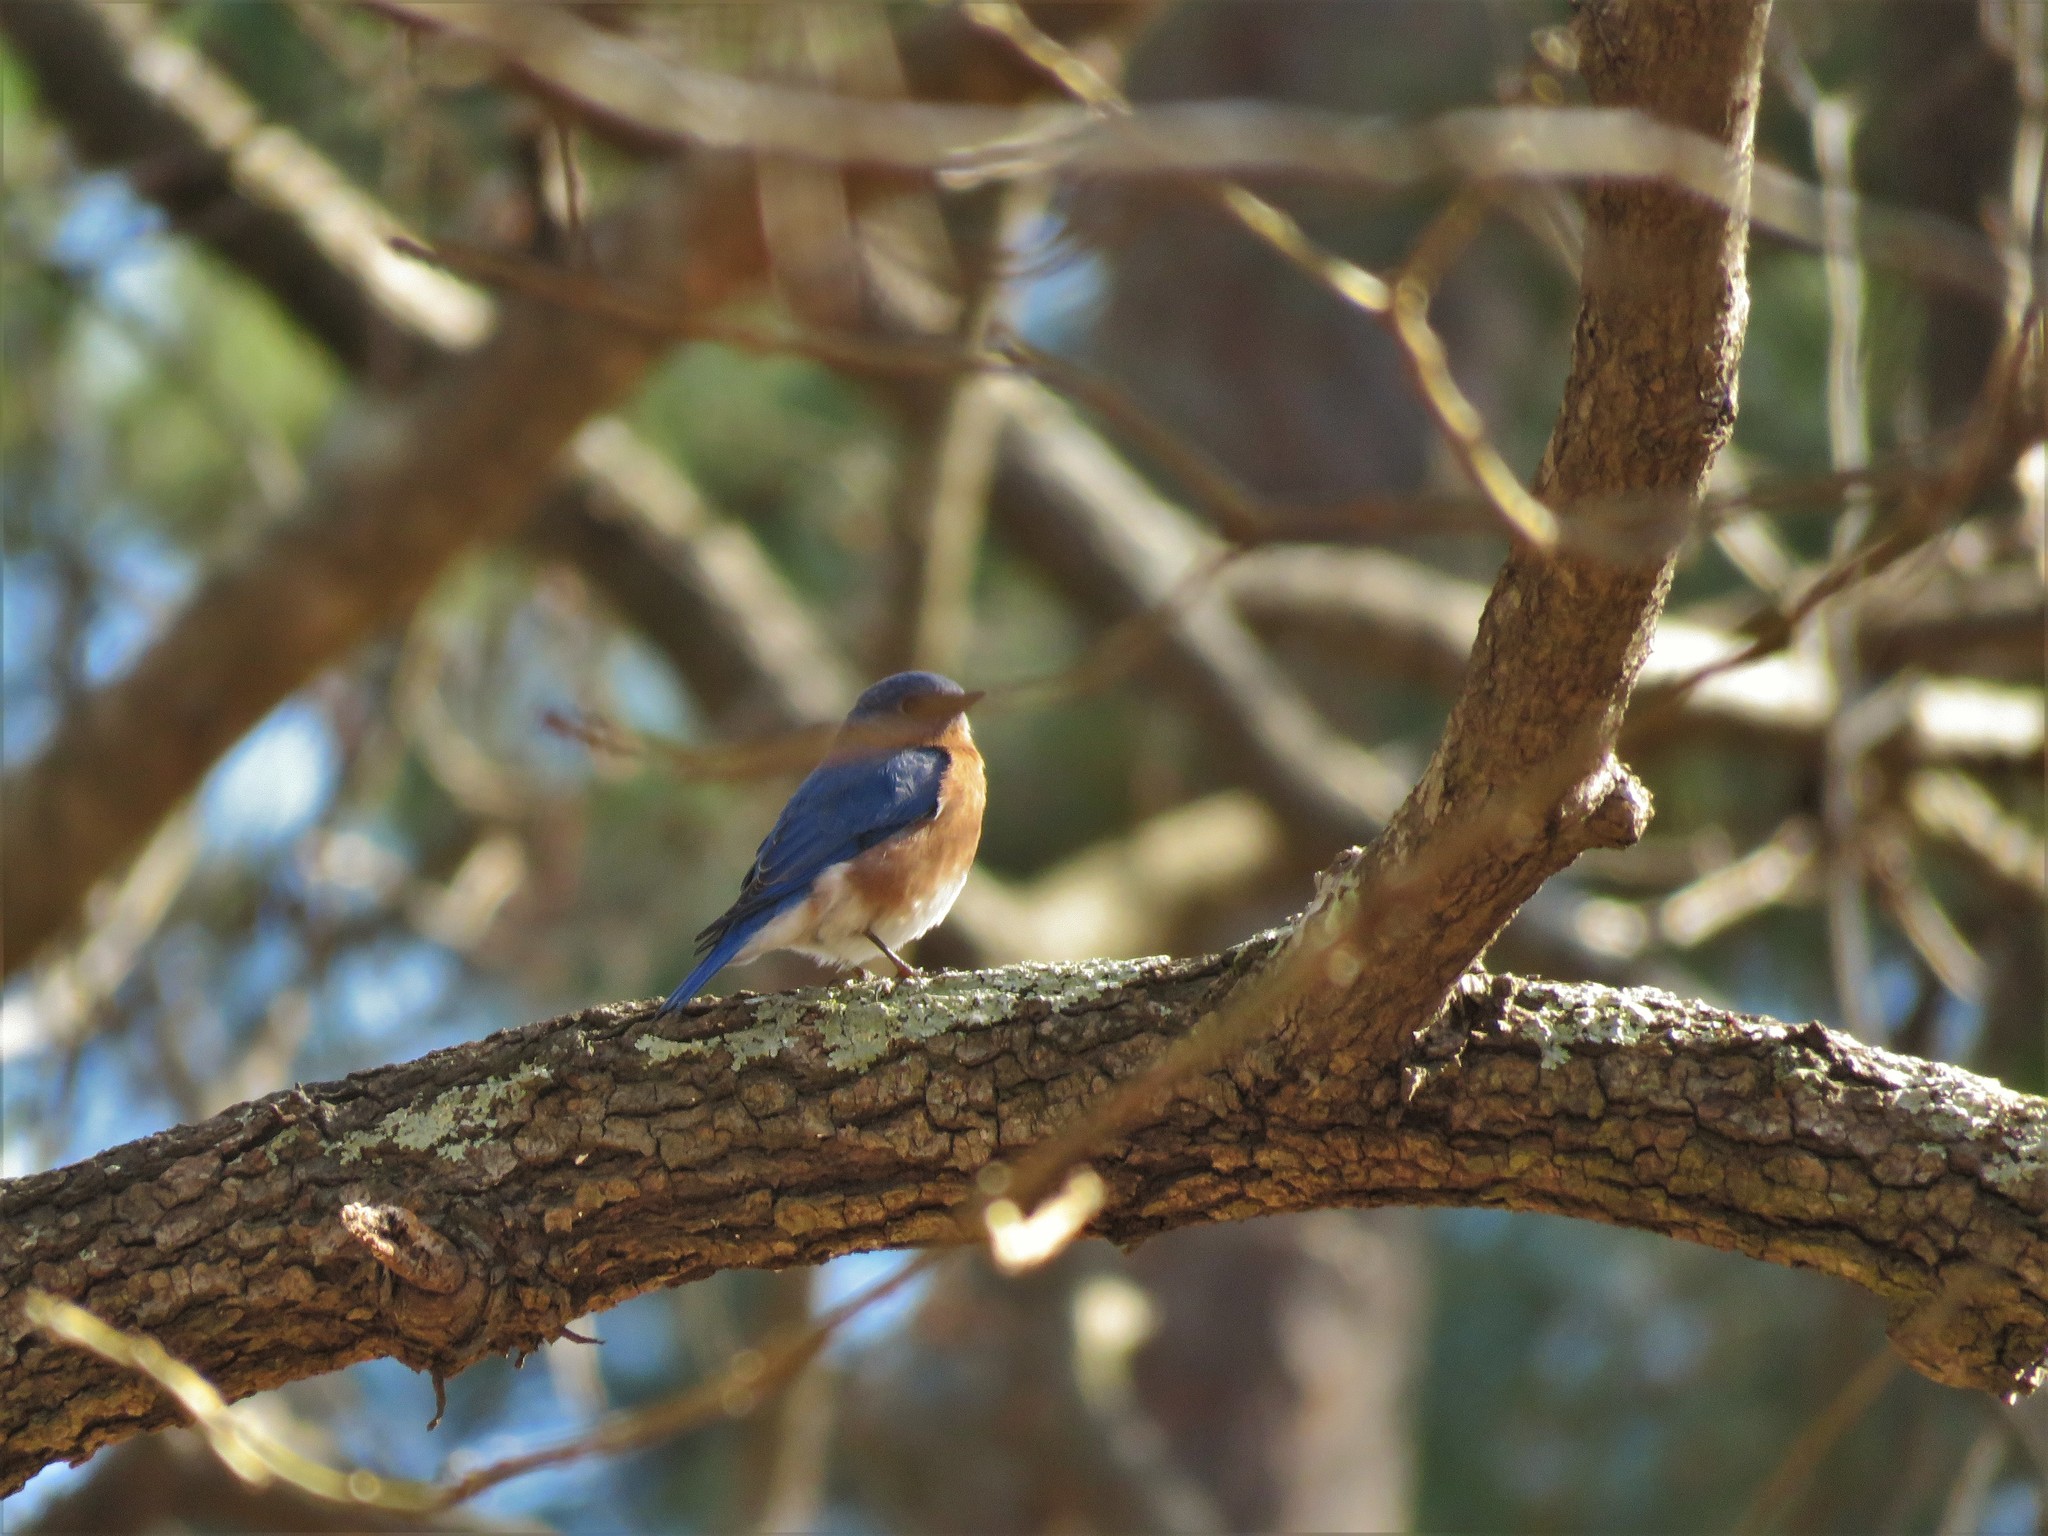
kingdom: Animalia
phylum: Chordata
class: Aves
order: Passeriformes
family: Turdidae
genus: Sialia
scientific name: Sialia sialis
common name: Eastern bluebird
